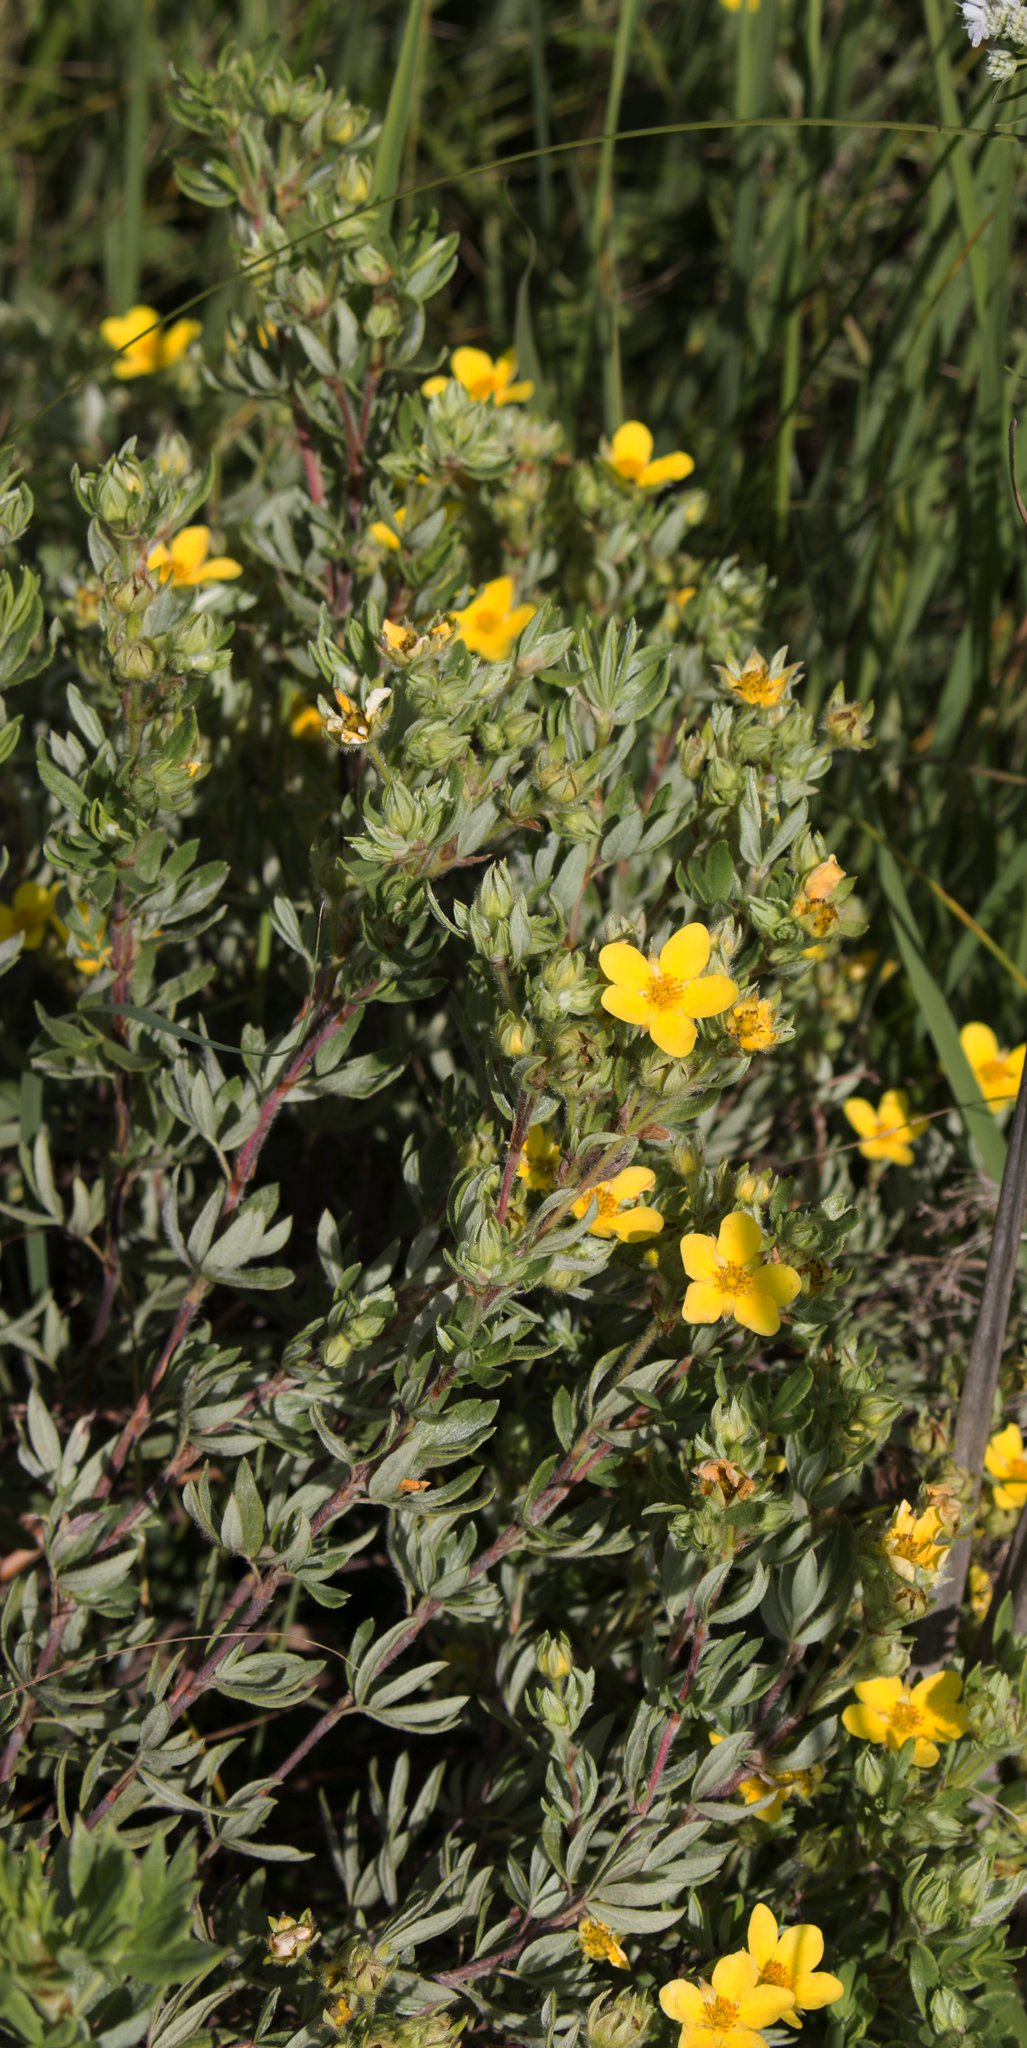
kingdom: Plantae
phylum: Tracheophyta
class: Magnoliopsida
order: Rosales
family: Rosaceae
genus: Dasiphora
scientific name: Dasiphora fruticosa
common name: Shrubby cinquefoil
